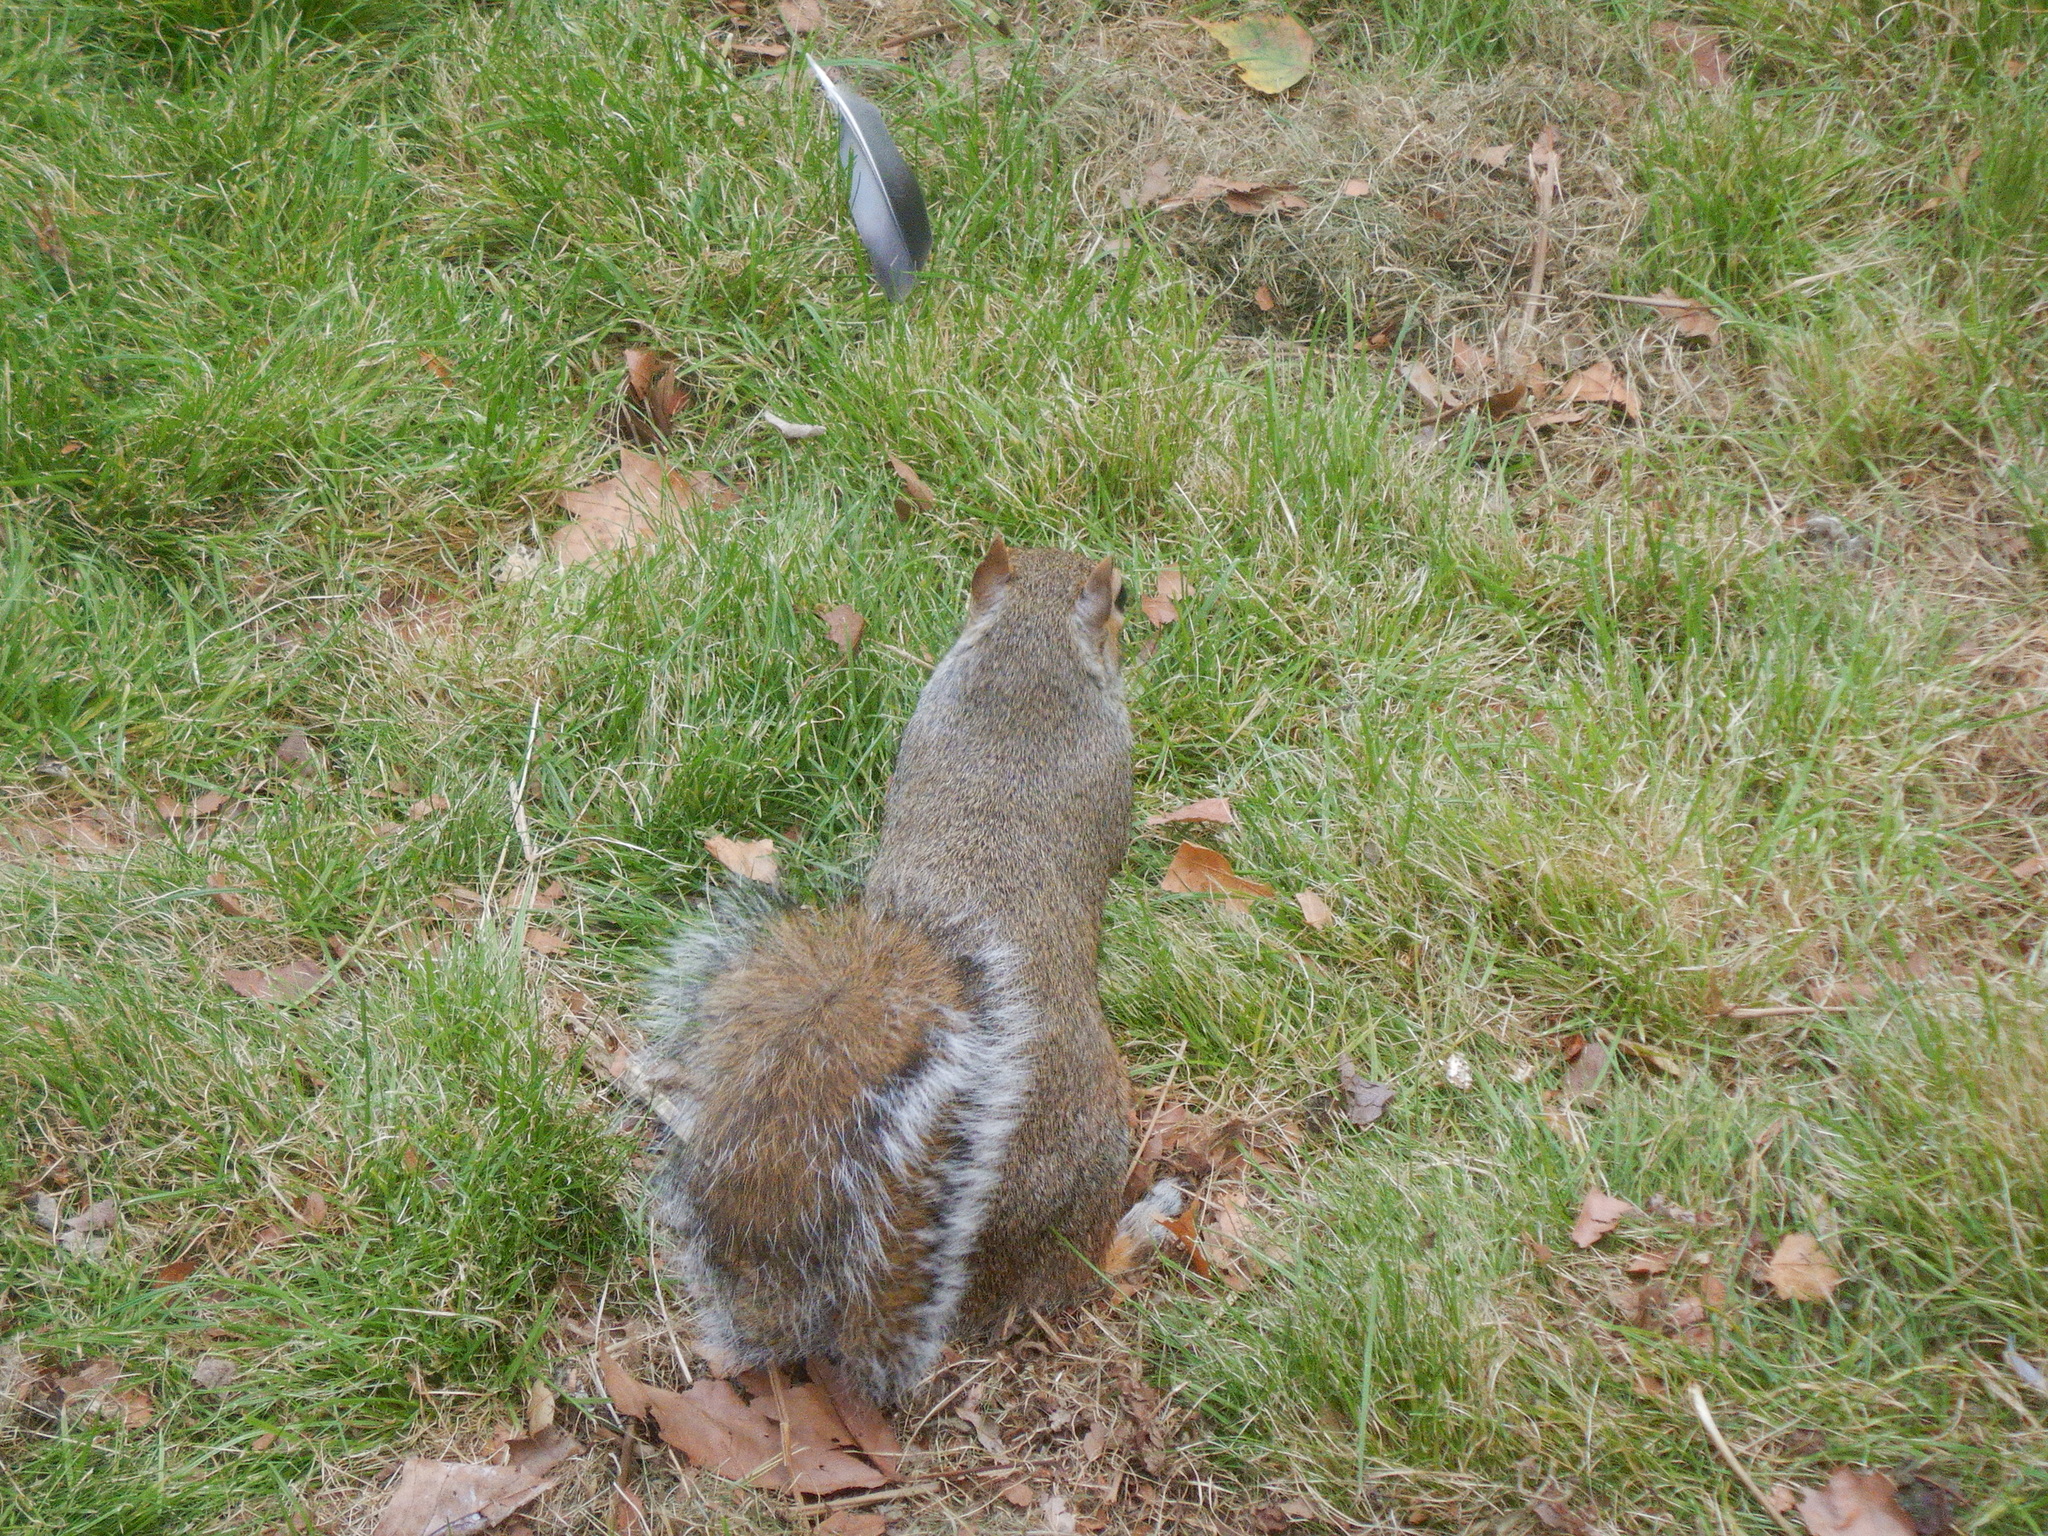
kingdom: Animalia
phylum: Chordata
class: Mammalia
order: Rodentia
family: Sciuridae
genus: Sciurus
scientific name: Sciurus carolinensis
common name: Eastern gray squirrel
